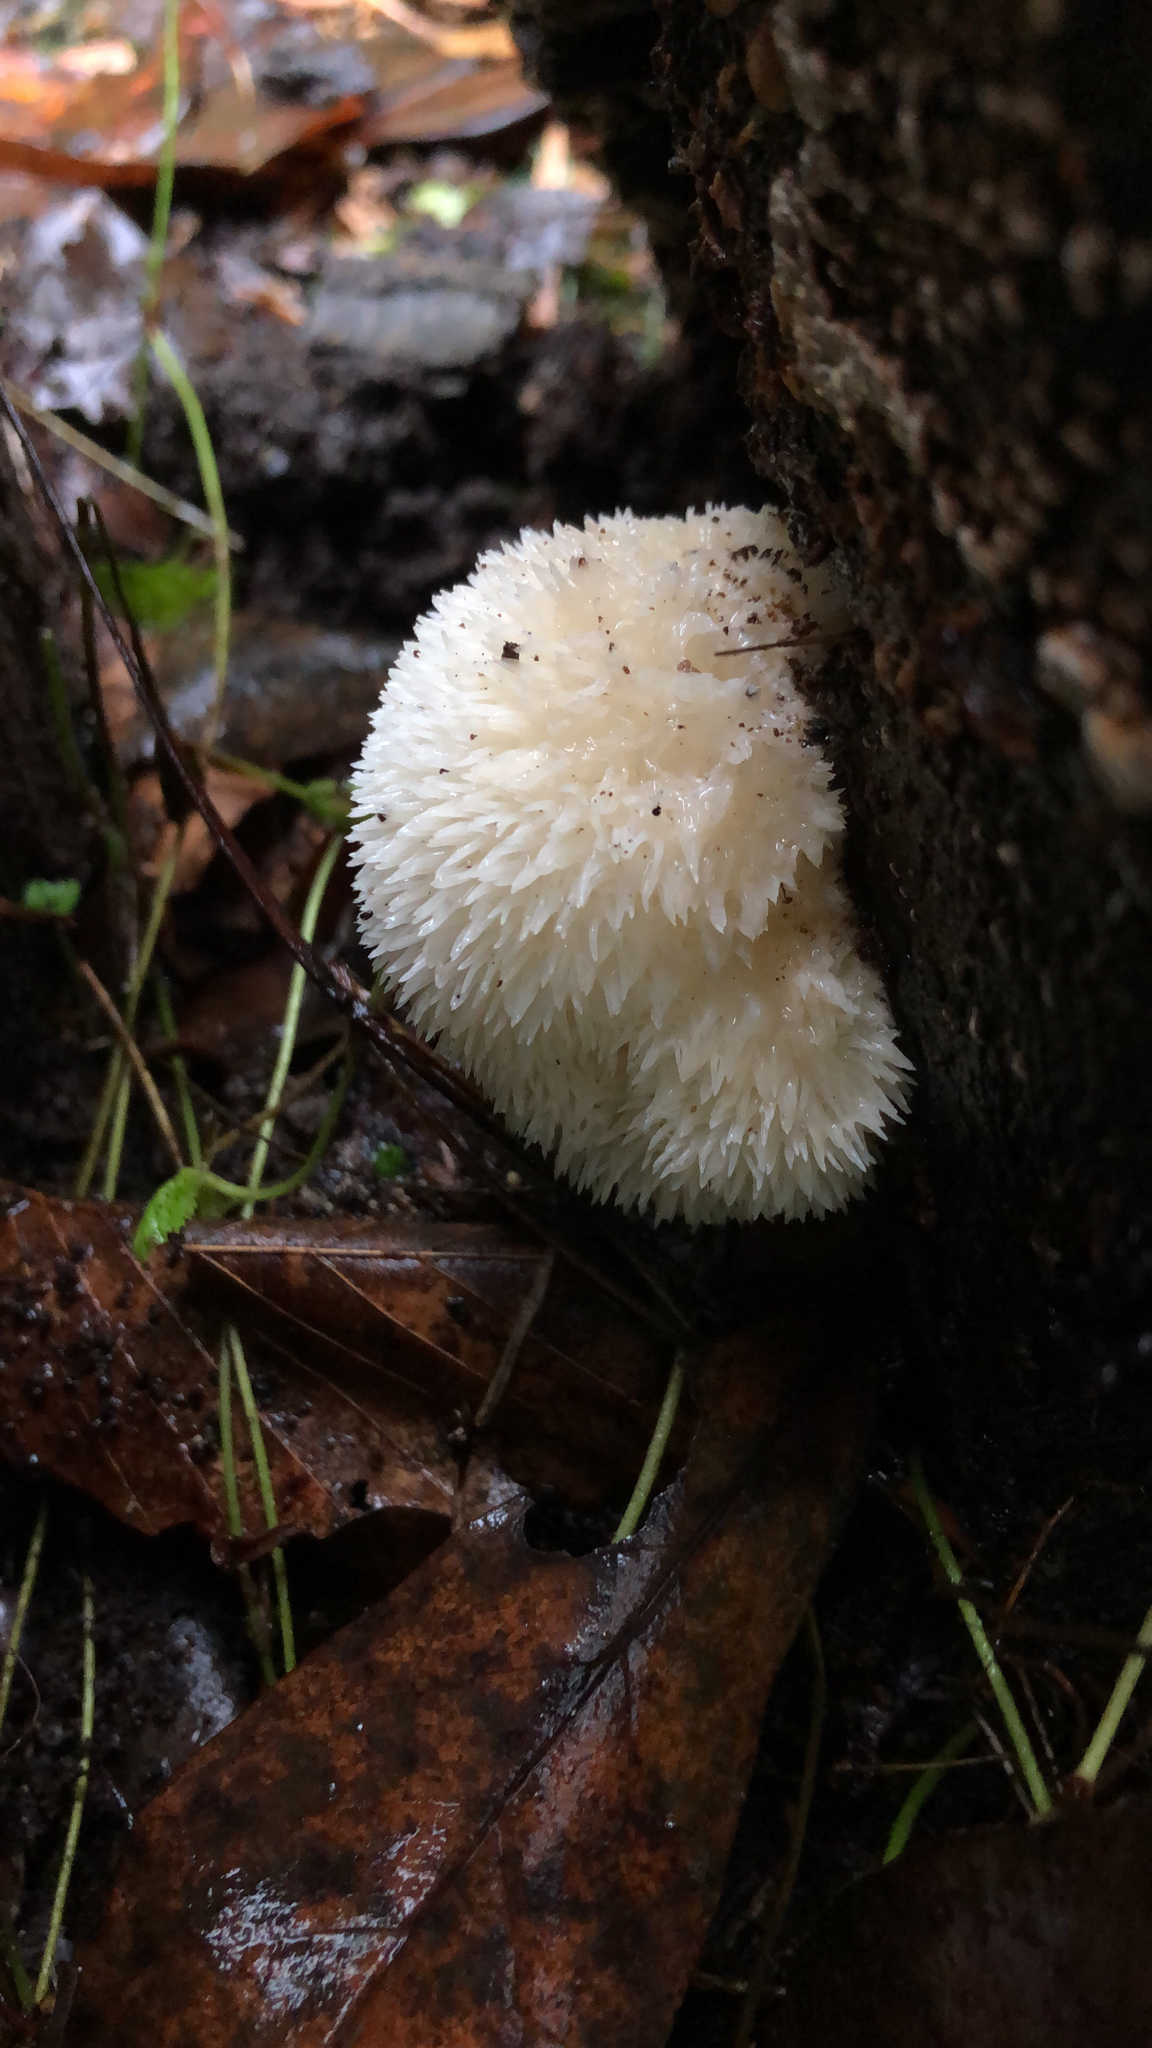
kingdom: Fungi
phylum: Basidiomycota
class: Agaricomycetes
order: Russulales
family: Hericiaceae
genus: Hericium
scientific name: Hericium erinaceus
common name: Bearded tooth
